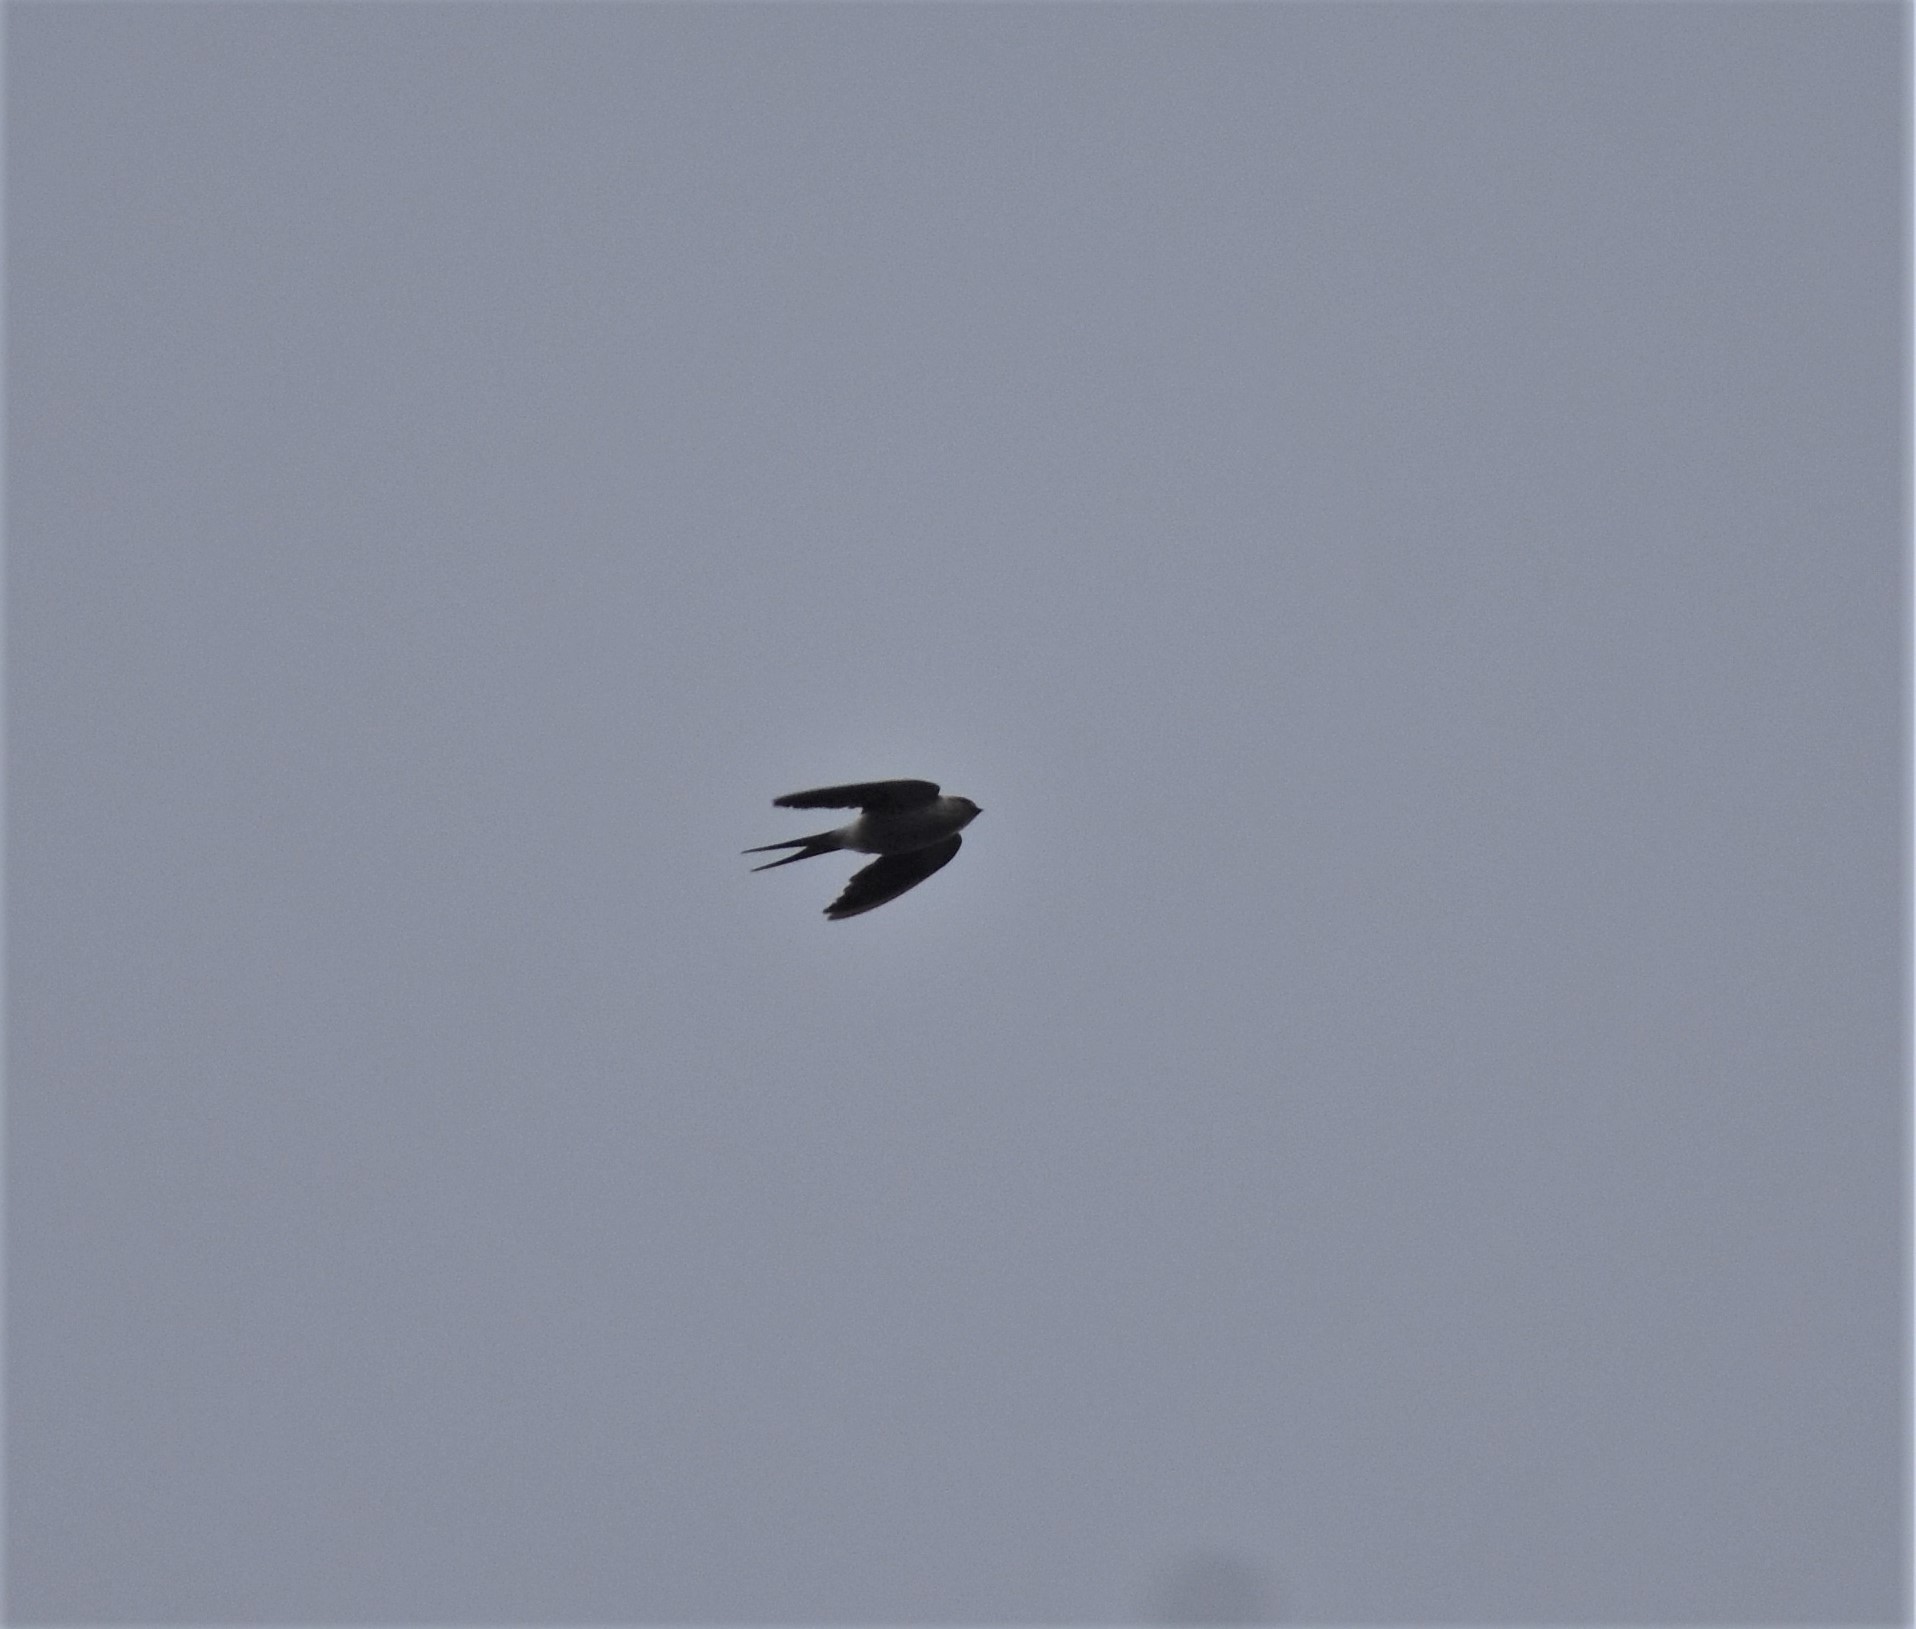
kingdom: Animalia
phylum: Chordata
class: Aves
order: Passeriformes
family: Hirundinidae
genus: Cecropis
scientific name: Cecropis cucullata
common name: Greater striped-swallow
